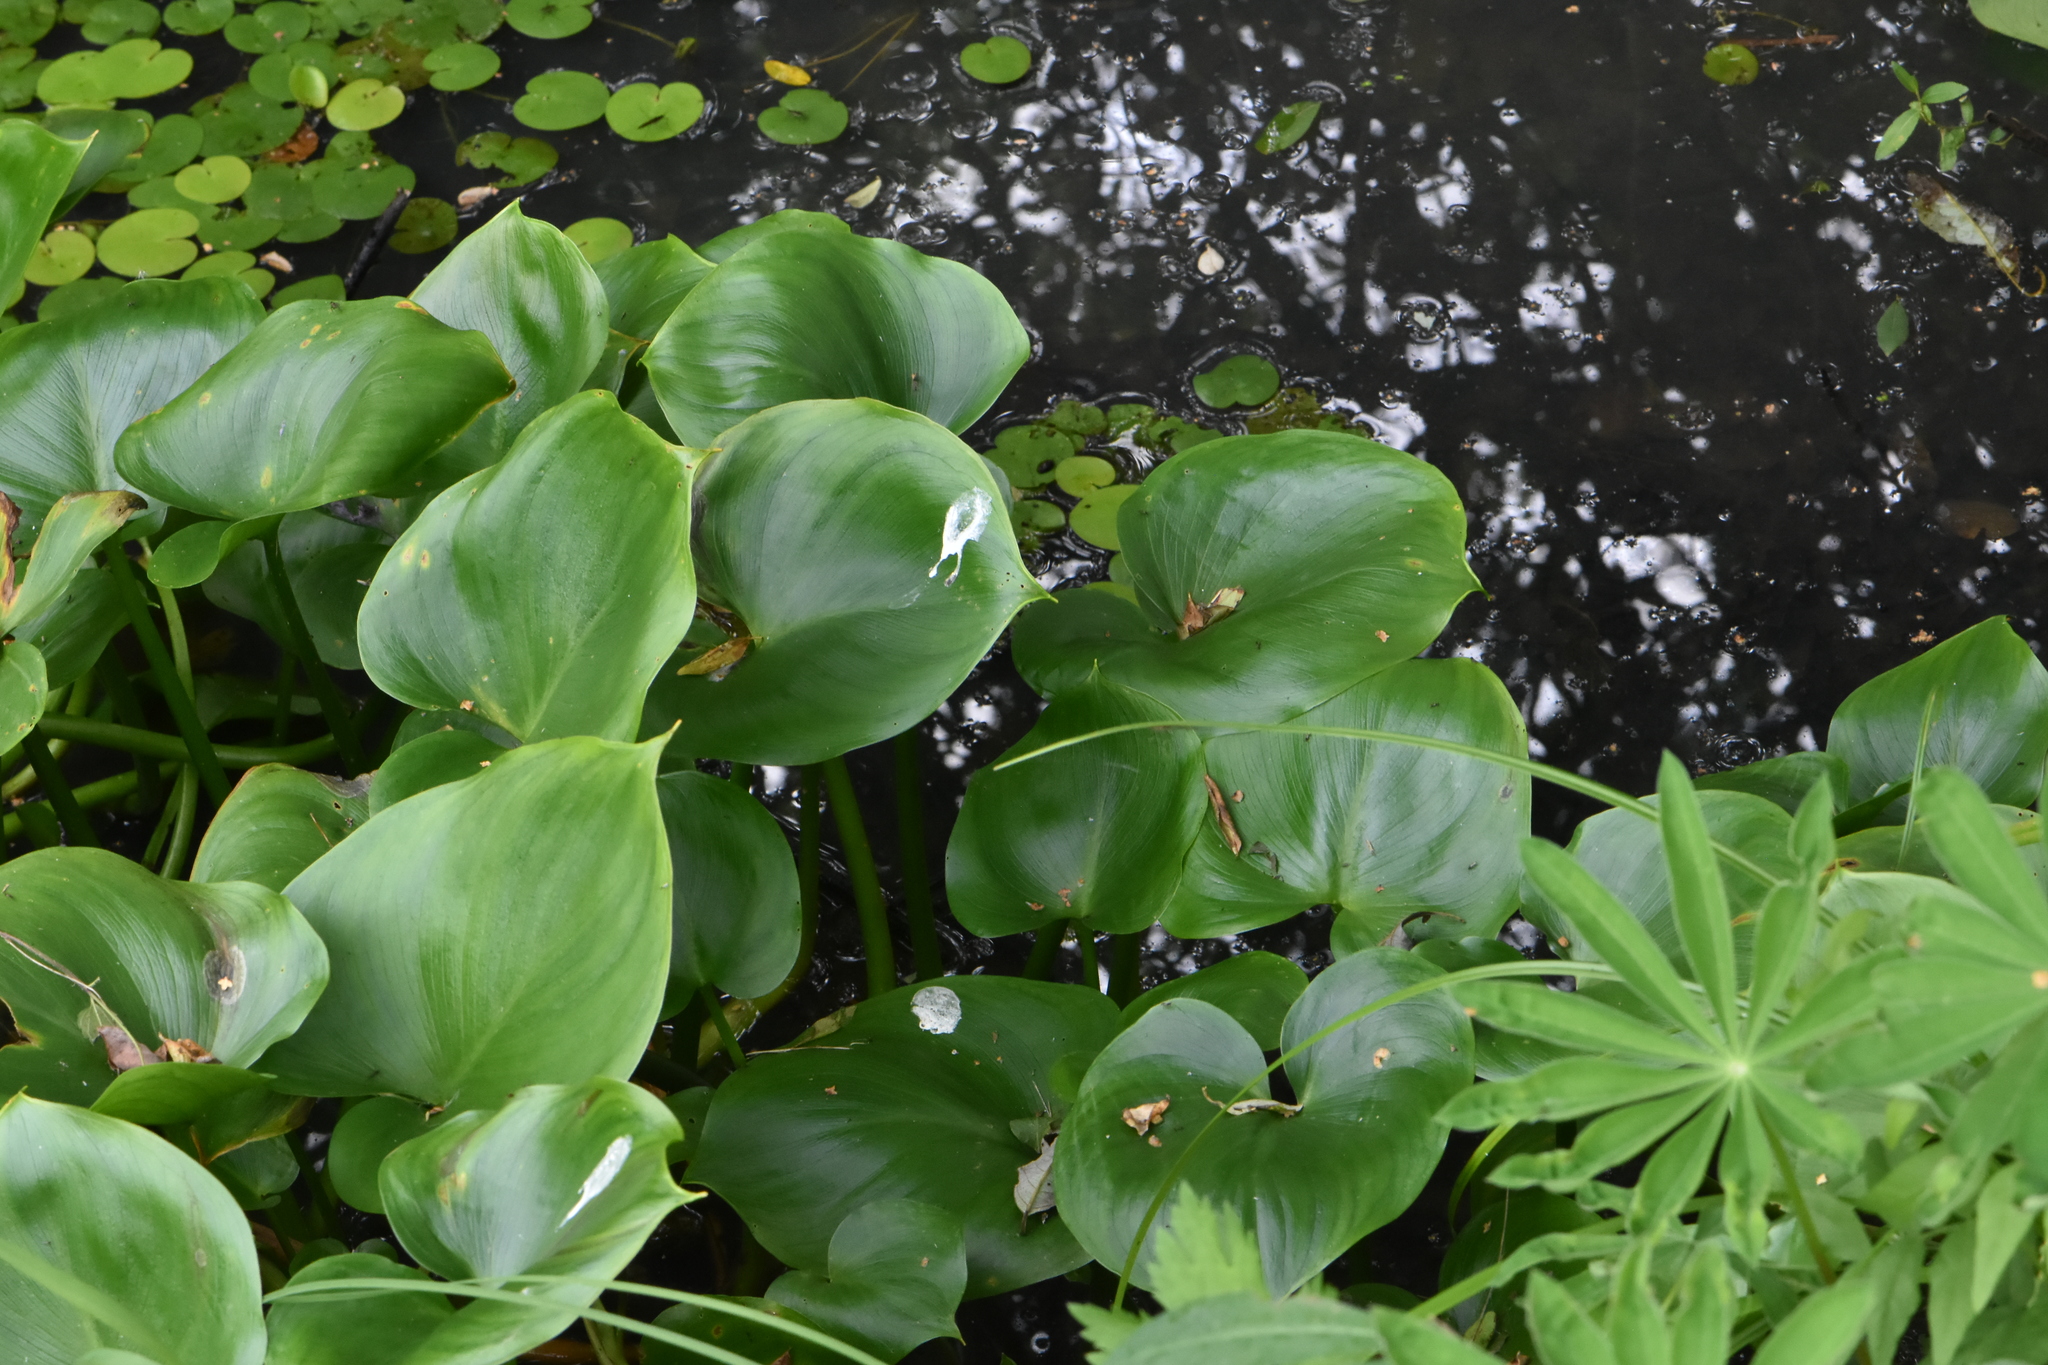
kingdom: Plantae
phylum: Tracheophyta
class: Liliopsida
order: Alismatales
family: Araceae
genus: Calla
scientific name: Calla palustris
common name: Bog arum
